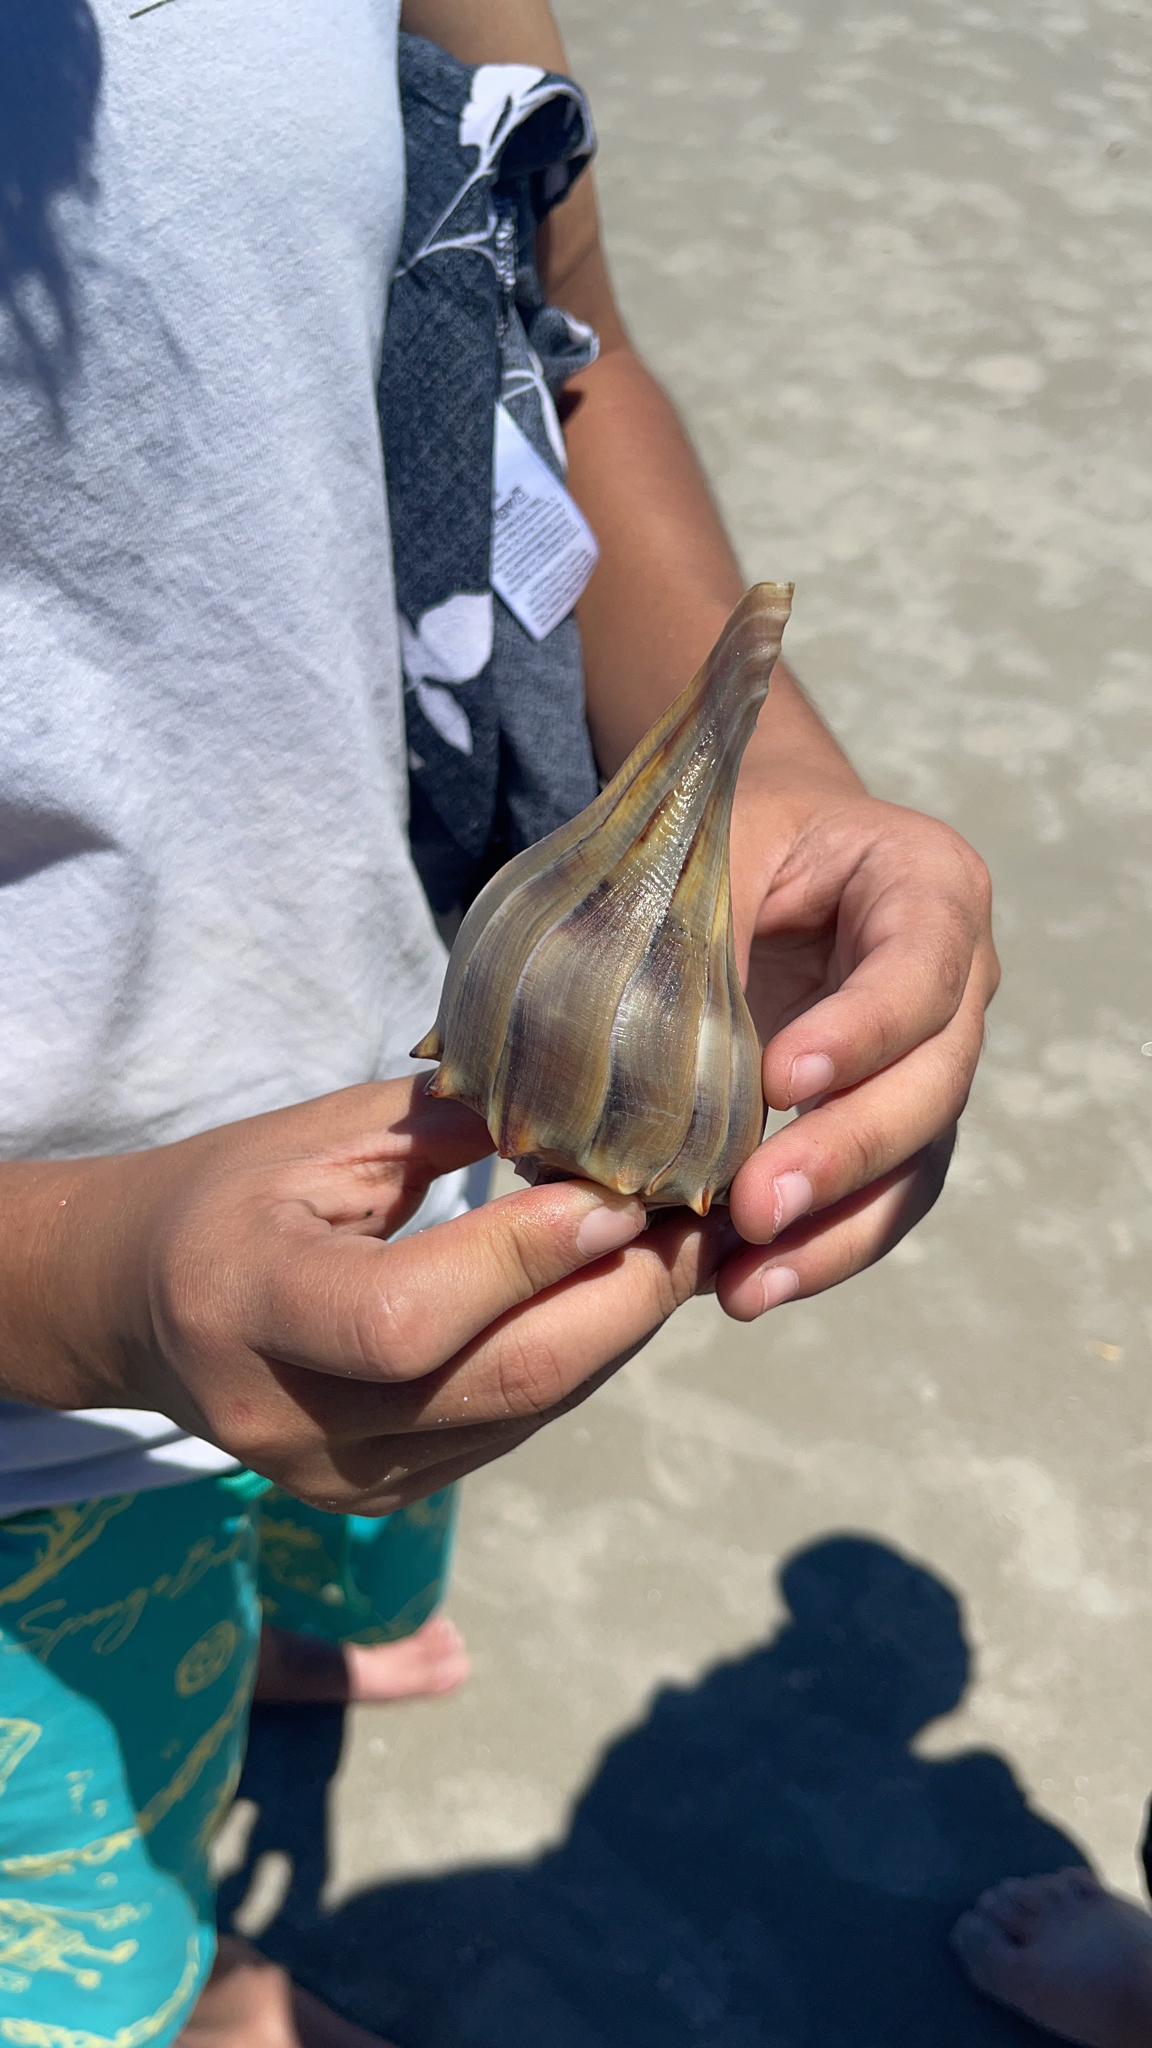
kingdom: Animalia
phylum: Mollusca
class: Gastropoda
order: Neogastropoda
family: Busyconidae
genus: Sinistrofulgur
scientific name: Sinistrofulgur sinistrum
